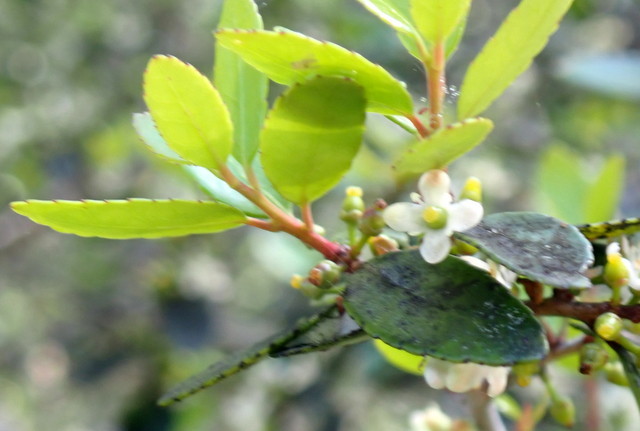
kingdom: Plantae
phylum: Tracheophyta
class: Magnoliopsida
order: Aquifoliales
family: Aquifoliaceae
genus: Ilex
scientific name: Ilex vomitoria
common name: Yaupon holly
